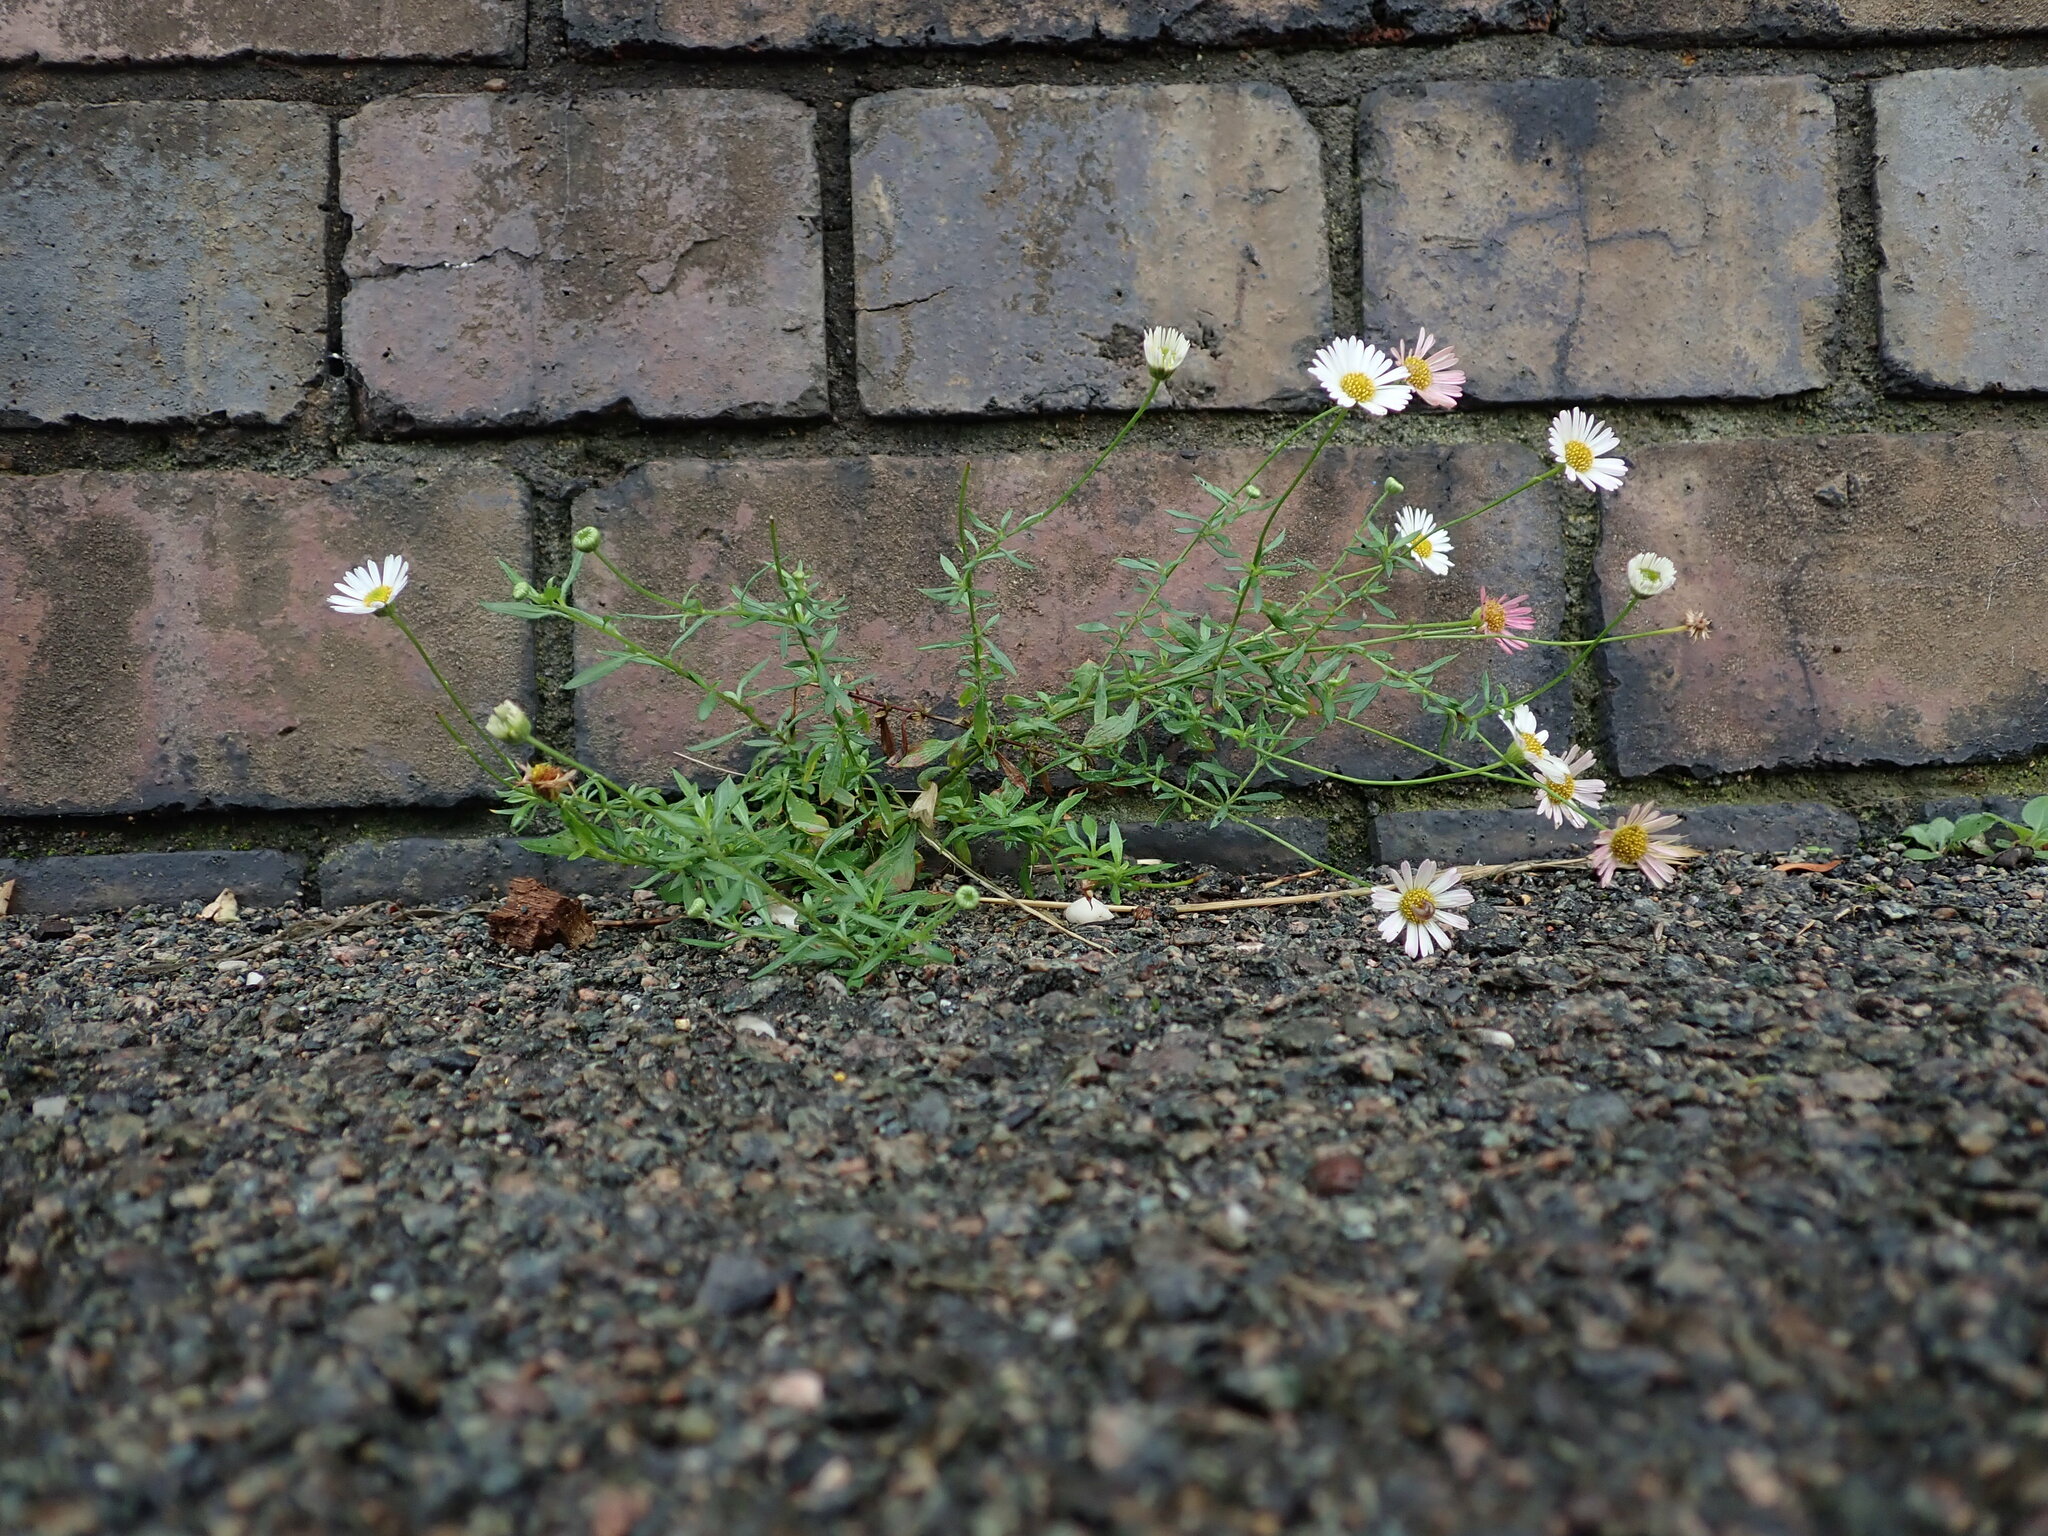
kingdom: Plantae
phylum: Tracheophyta
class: Magnoliopsida
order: Asterales
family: Asteraceae
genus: Erigeron
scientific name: Erigeron karvinskianus
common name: Mexican fleabane
